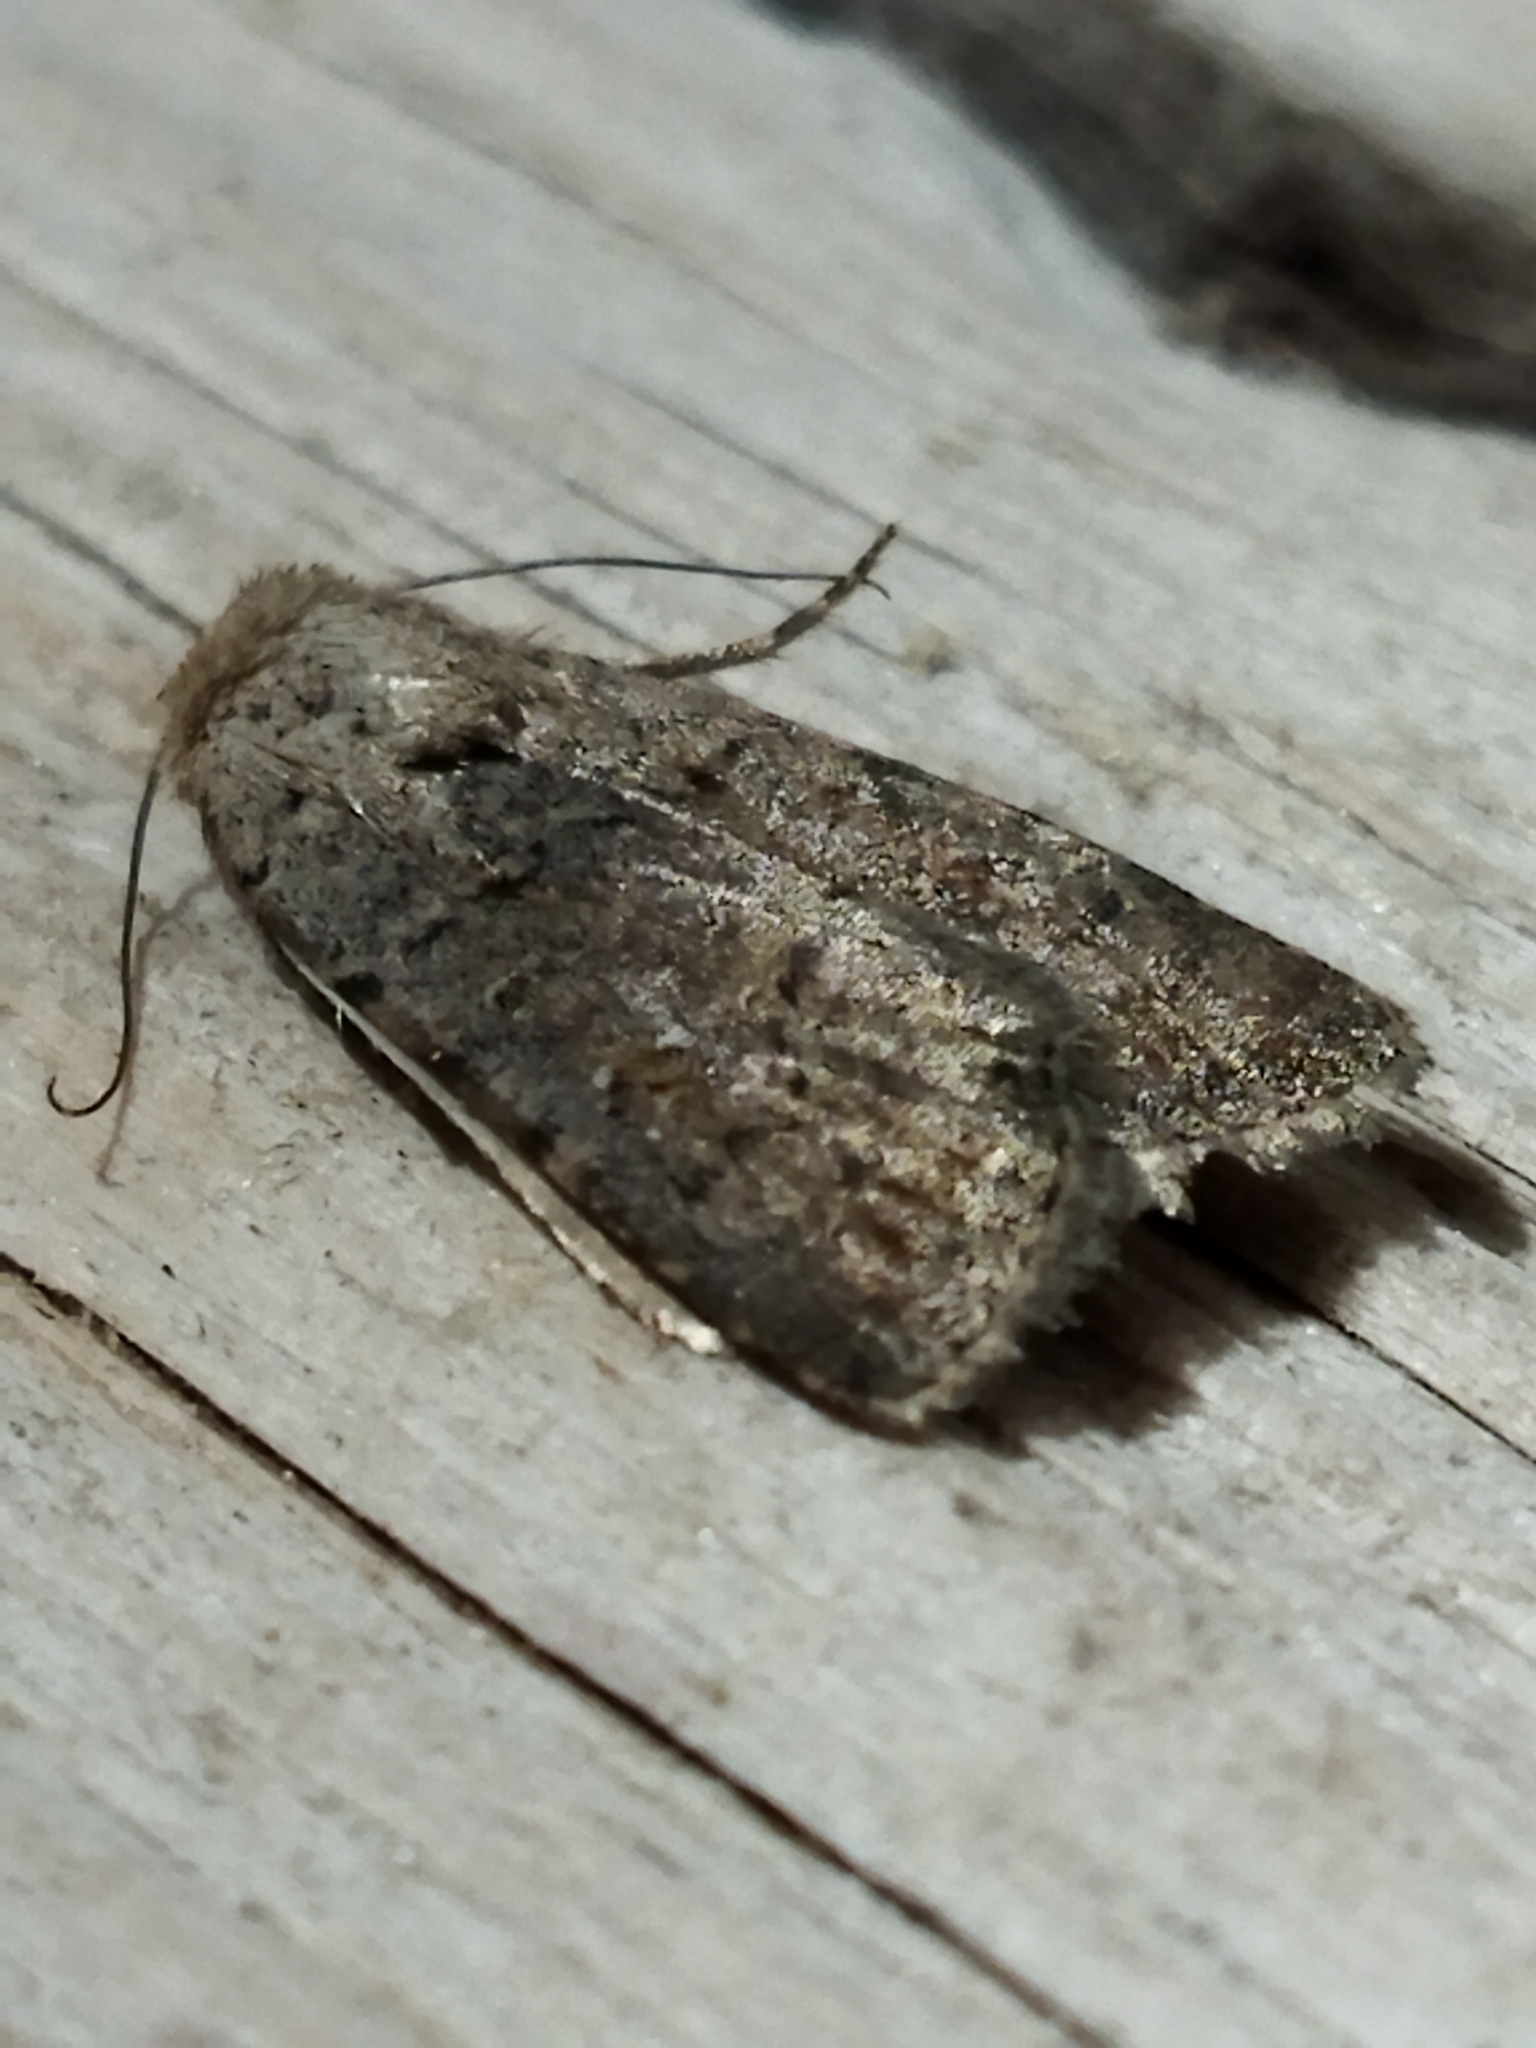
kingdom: Animalia
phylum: Arthropoda
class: Insecta
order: Lepidoptera
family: Noctuidae
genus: Caradrina
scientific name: Caradrina clavipalpis
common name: Pale mottled willow
